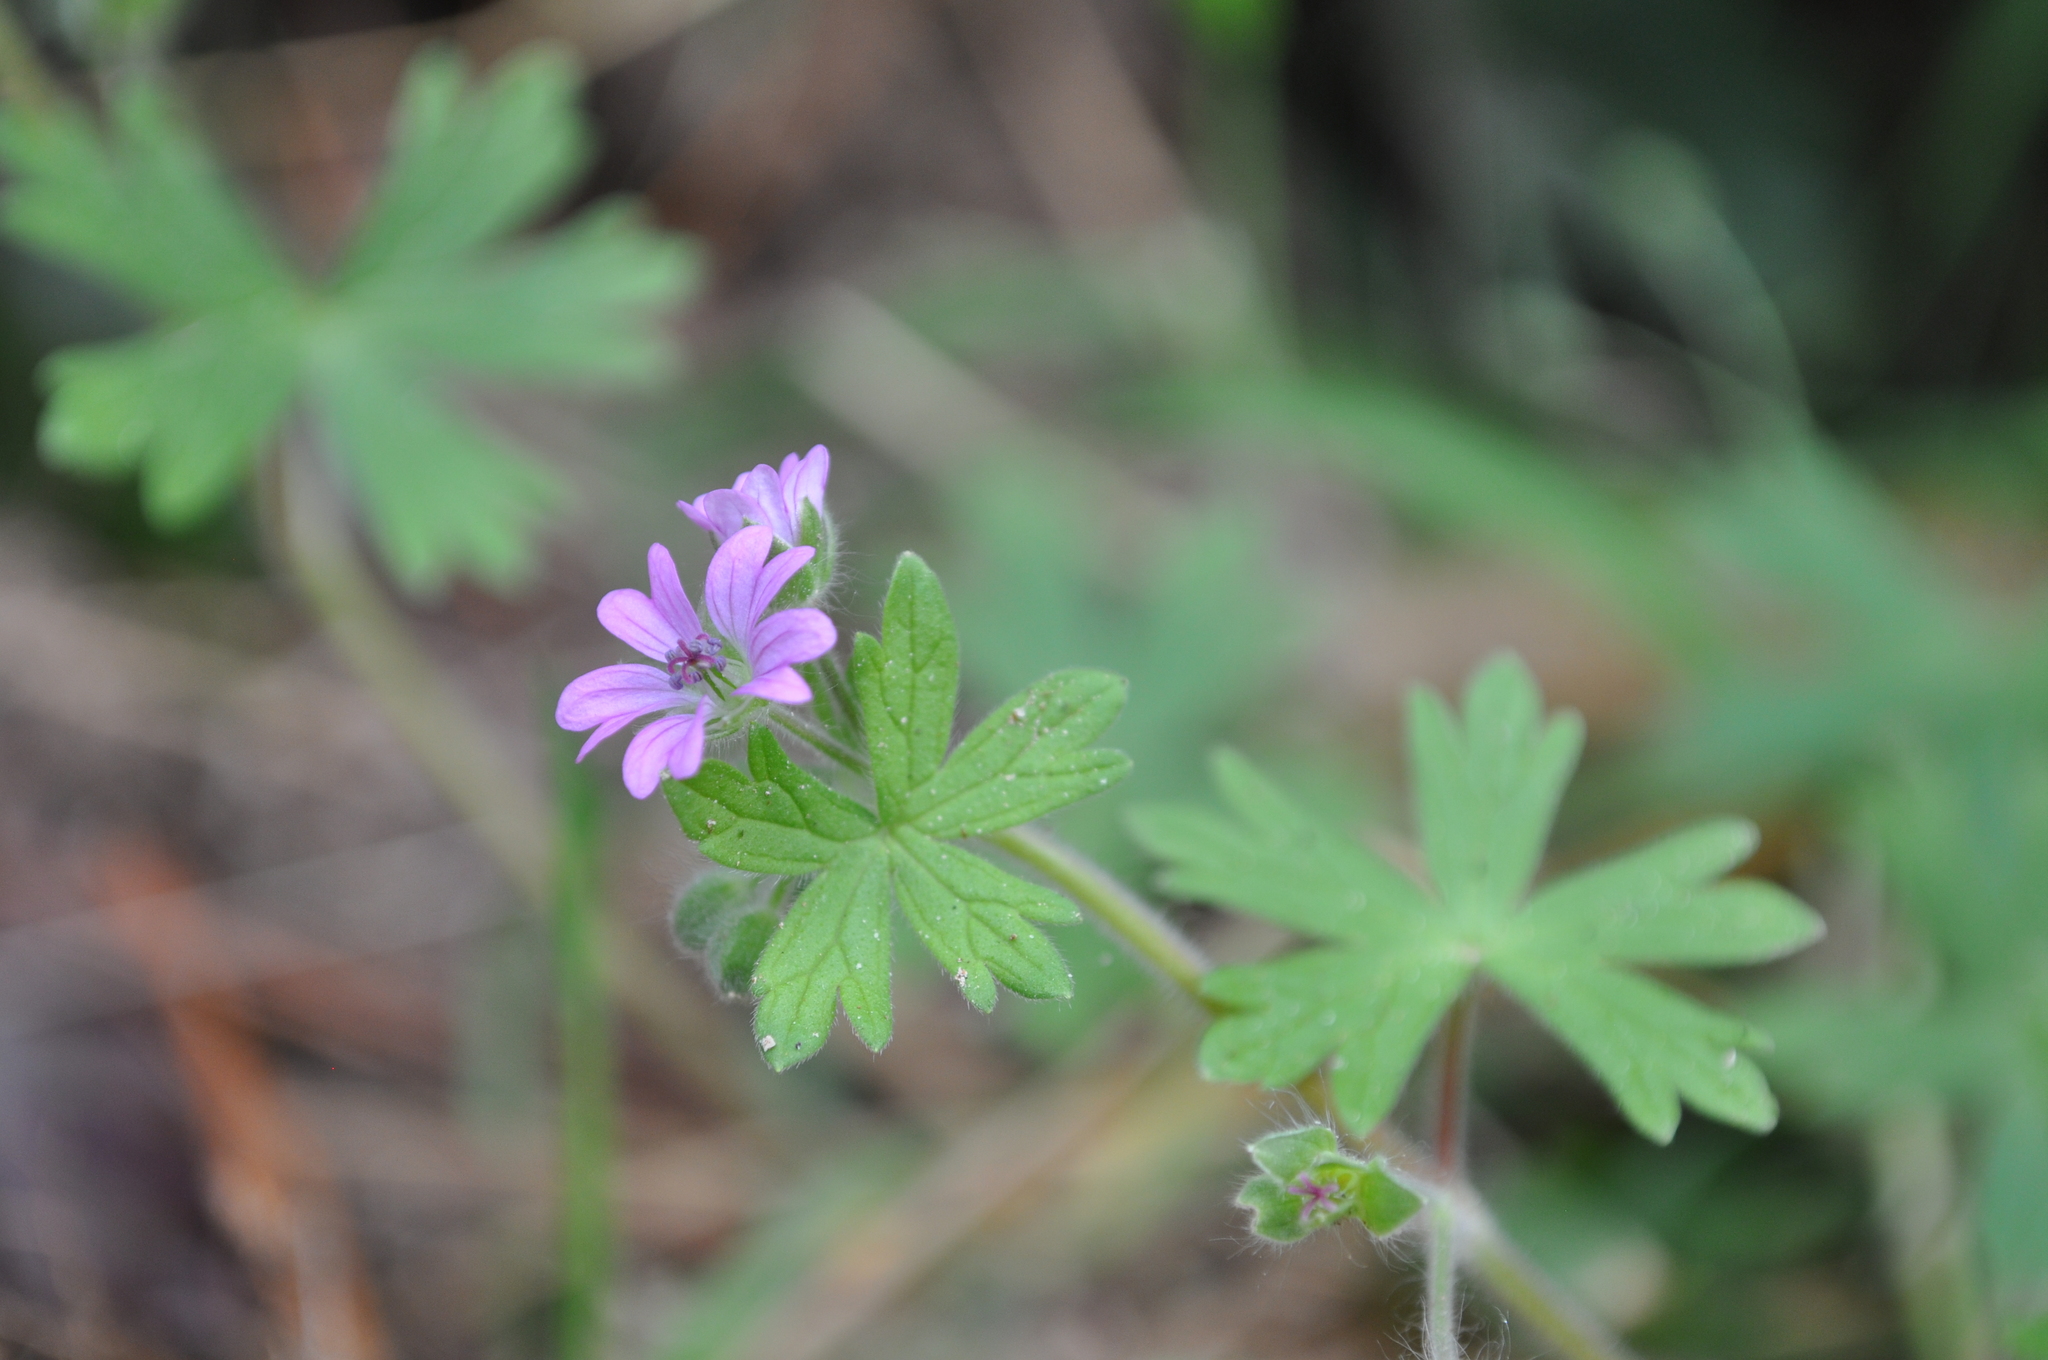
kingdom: Plantae
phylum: Tracheophyta
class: Magnoliopsida
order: Geraniales
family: Geraniaceae
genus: Geranium
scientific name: Geranium molle
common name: Dove's-foot crane's-bill
